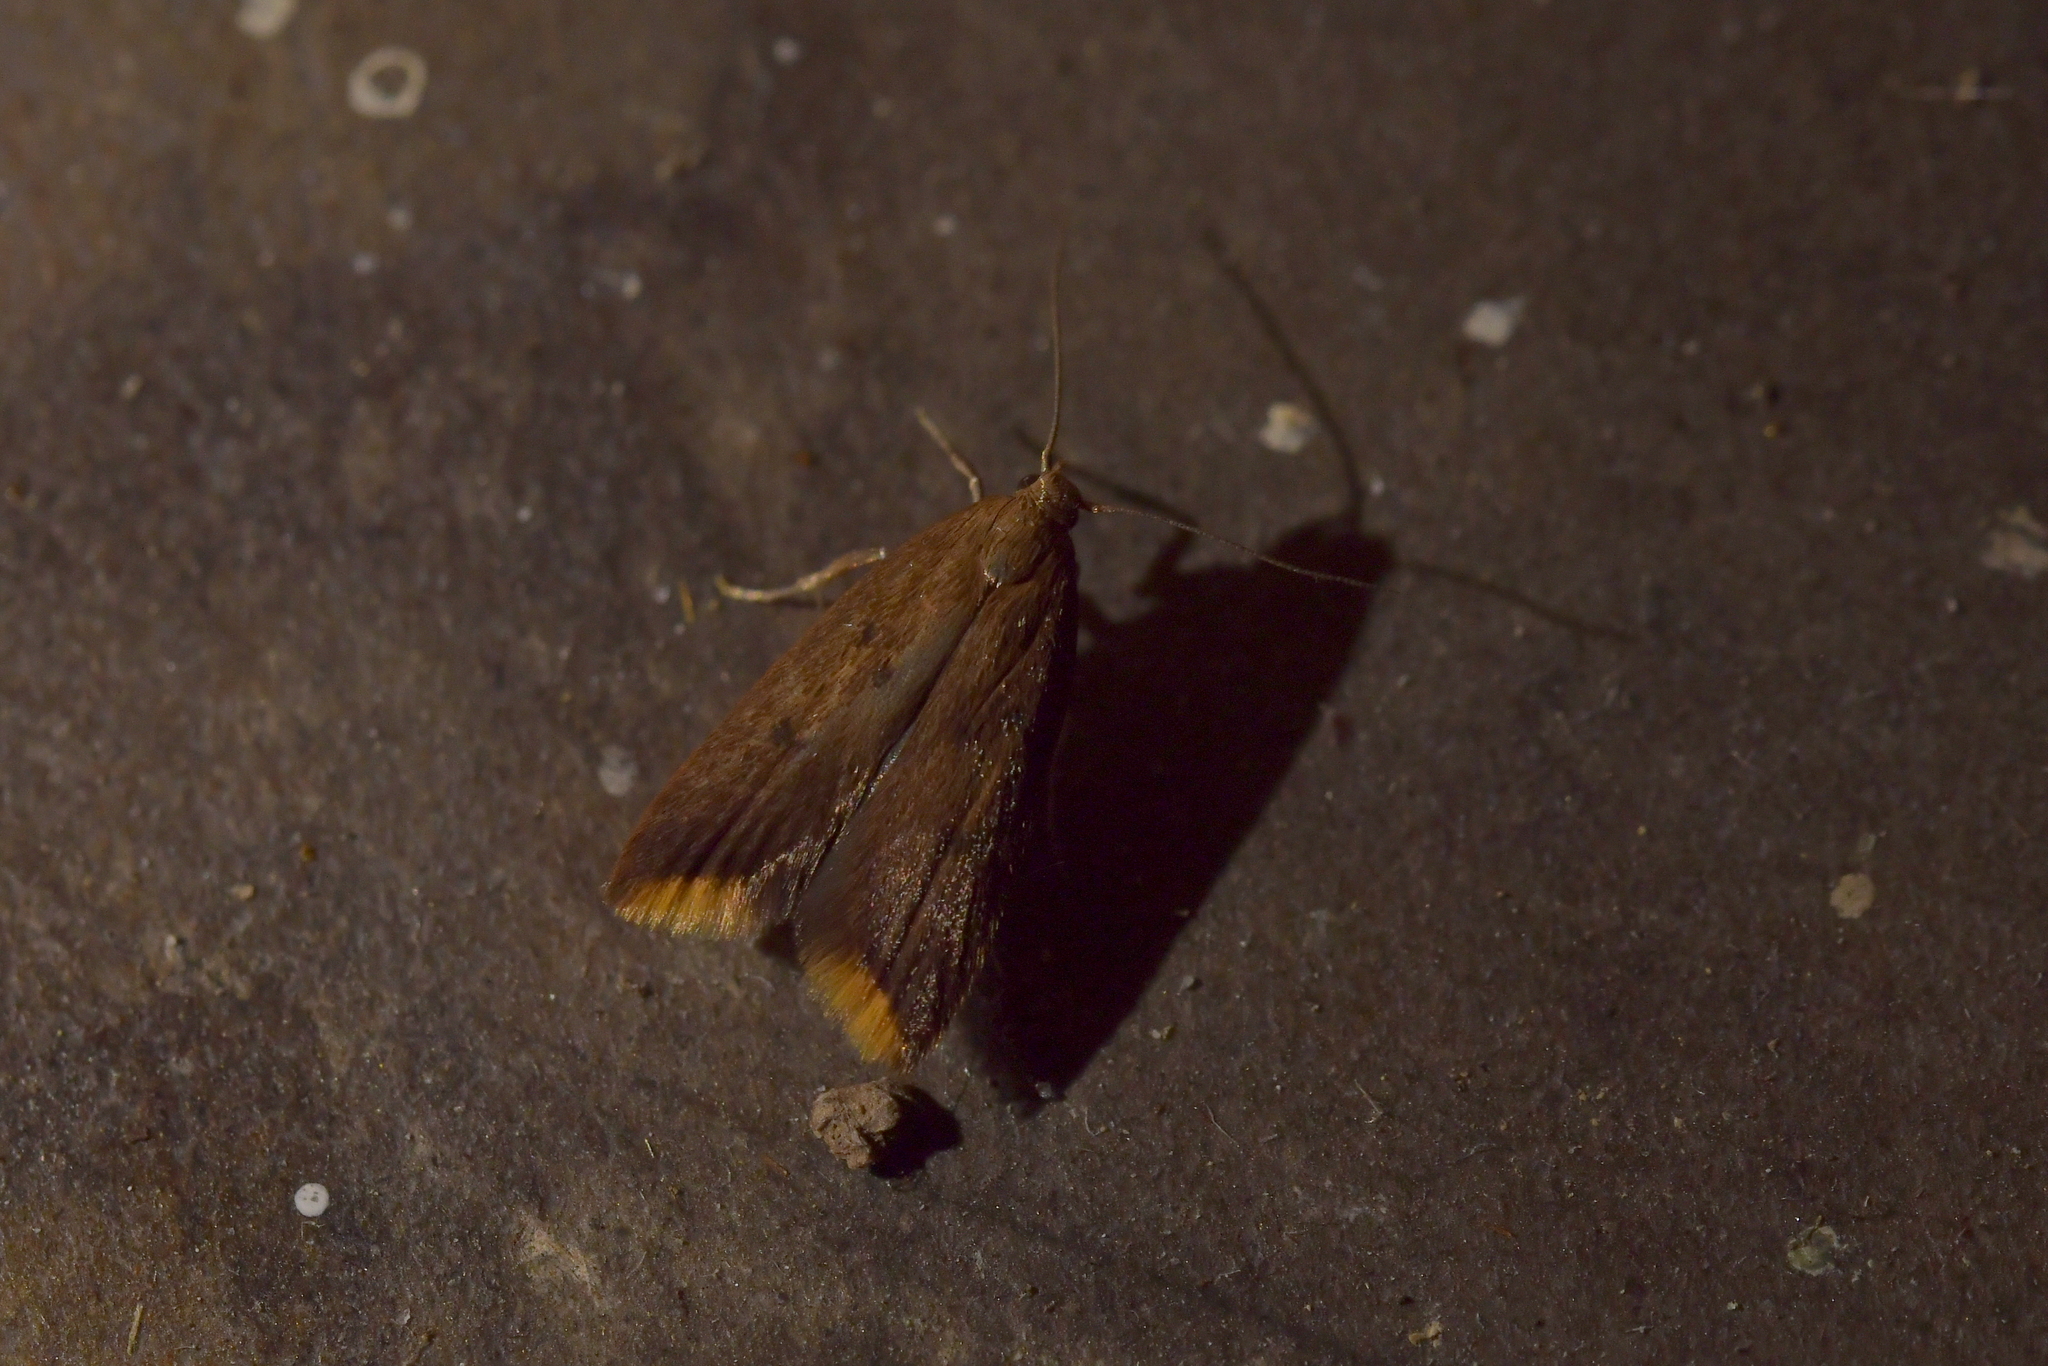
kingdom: Animalia
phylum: Arthropoda
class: Insecta
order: Lepidoptera
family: Oecophoridae
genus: Tachystola
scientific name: Tachystola acroxantha
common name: Ruddy streak
